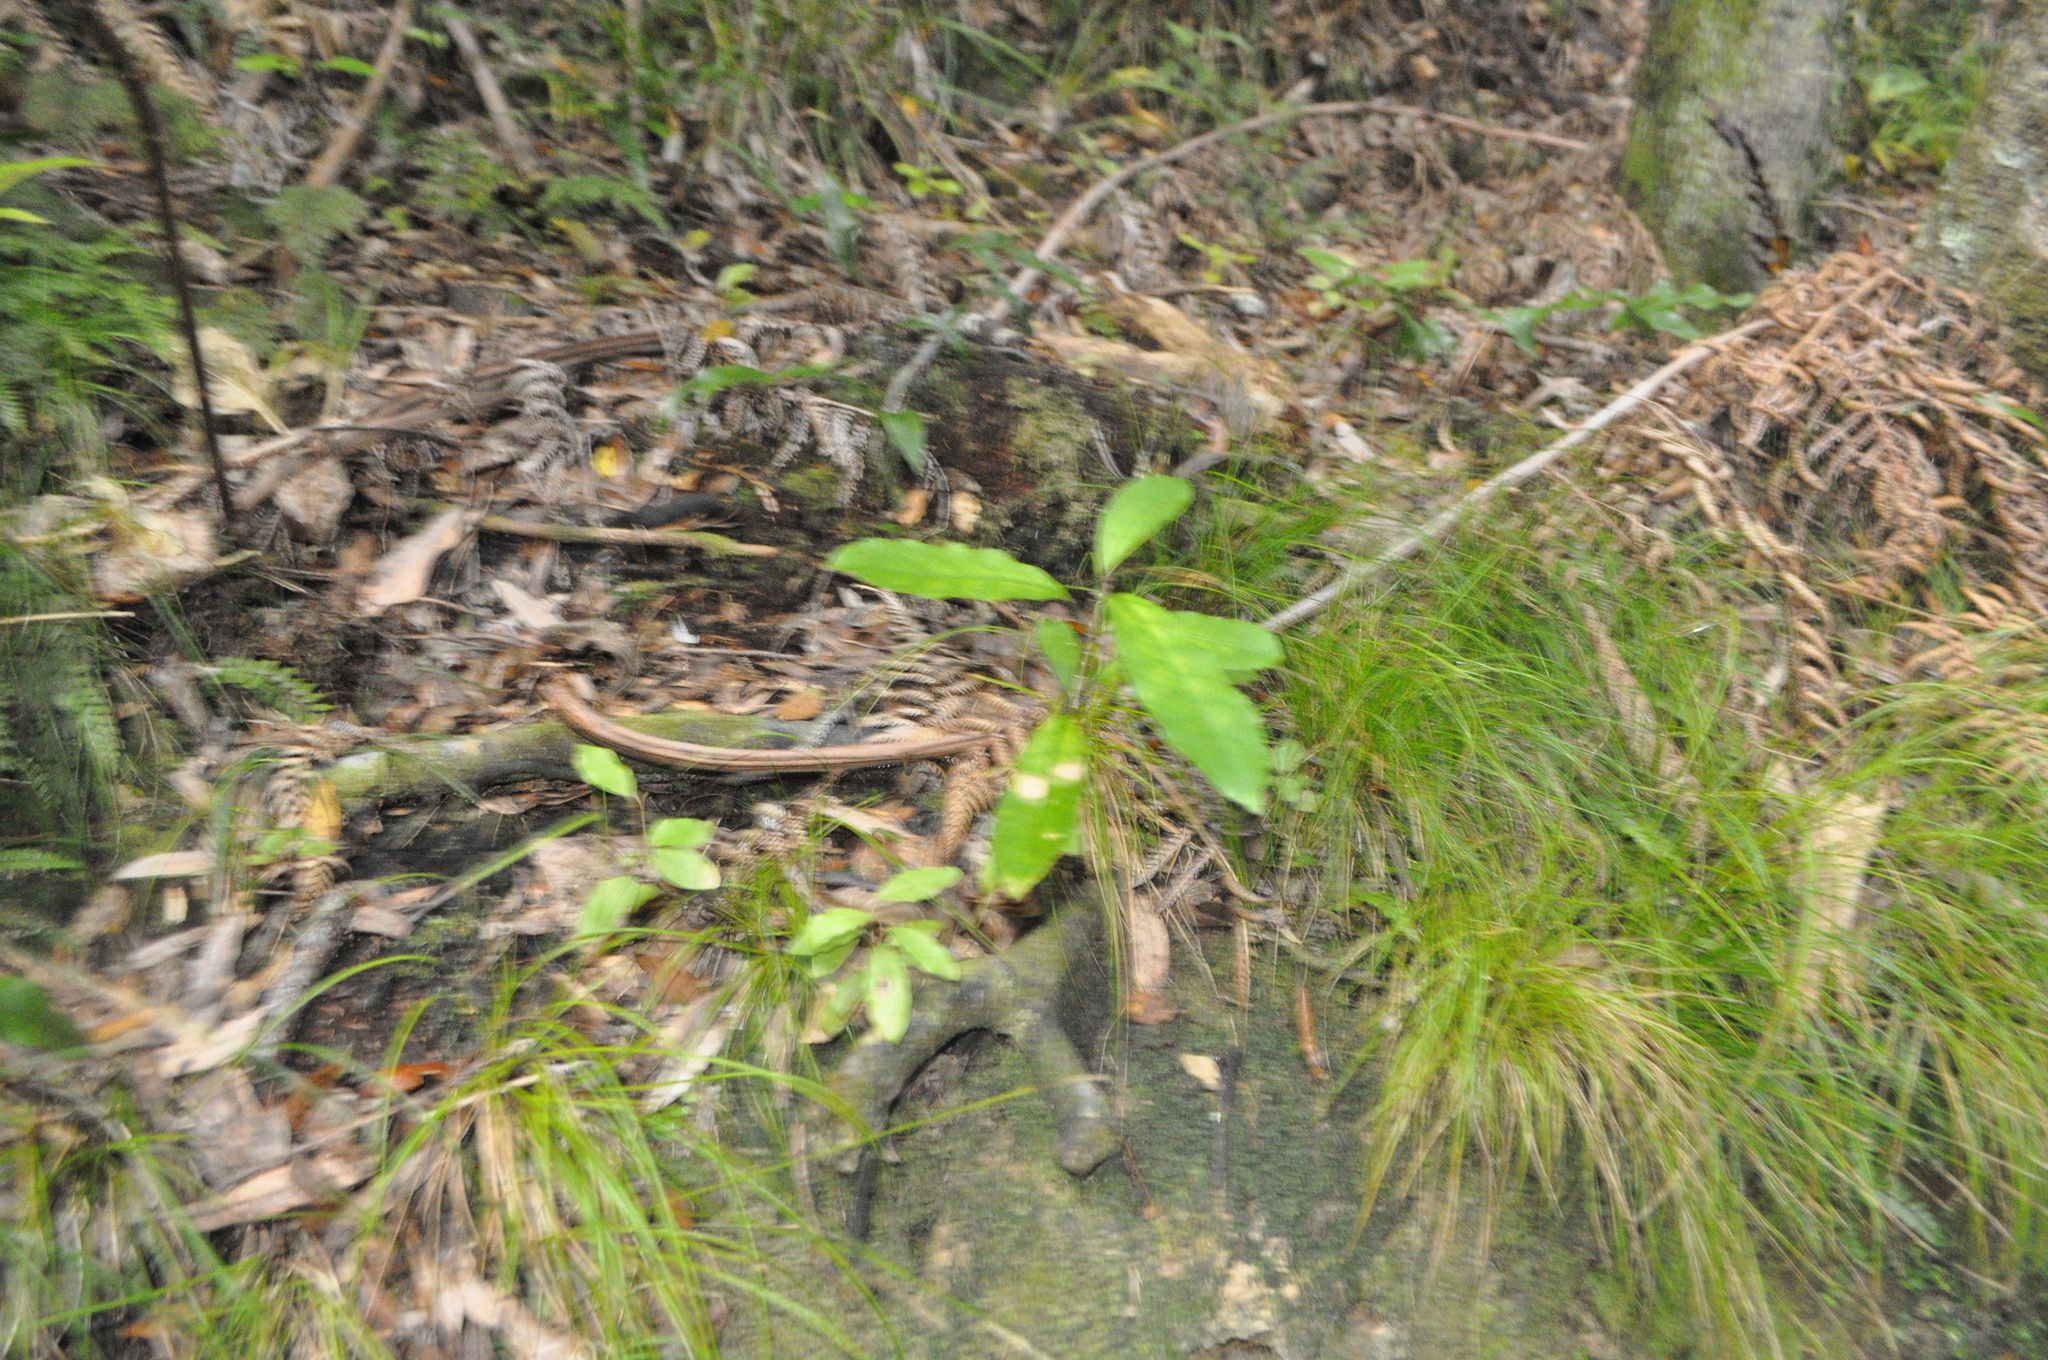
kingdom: Plantae
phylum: Tracheophyta
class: Magnoliopsida
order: Malpighiales
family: Violaceae
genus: Melicytus
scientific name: Melicytus ramiflorus
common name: Mahoe
